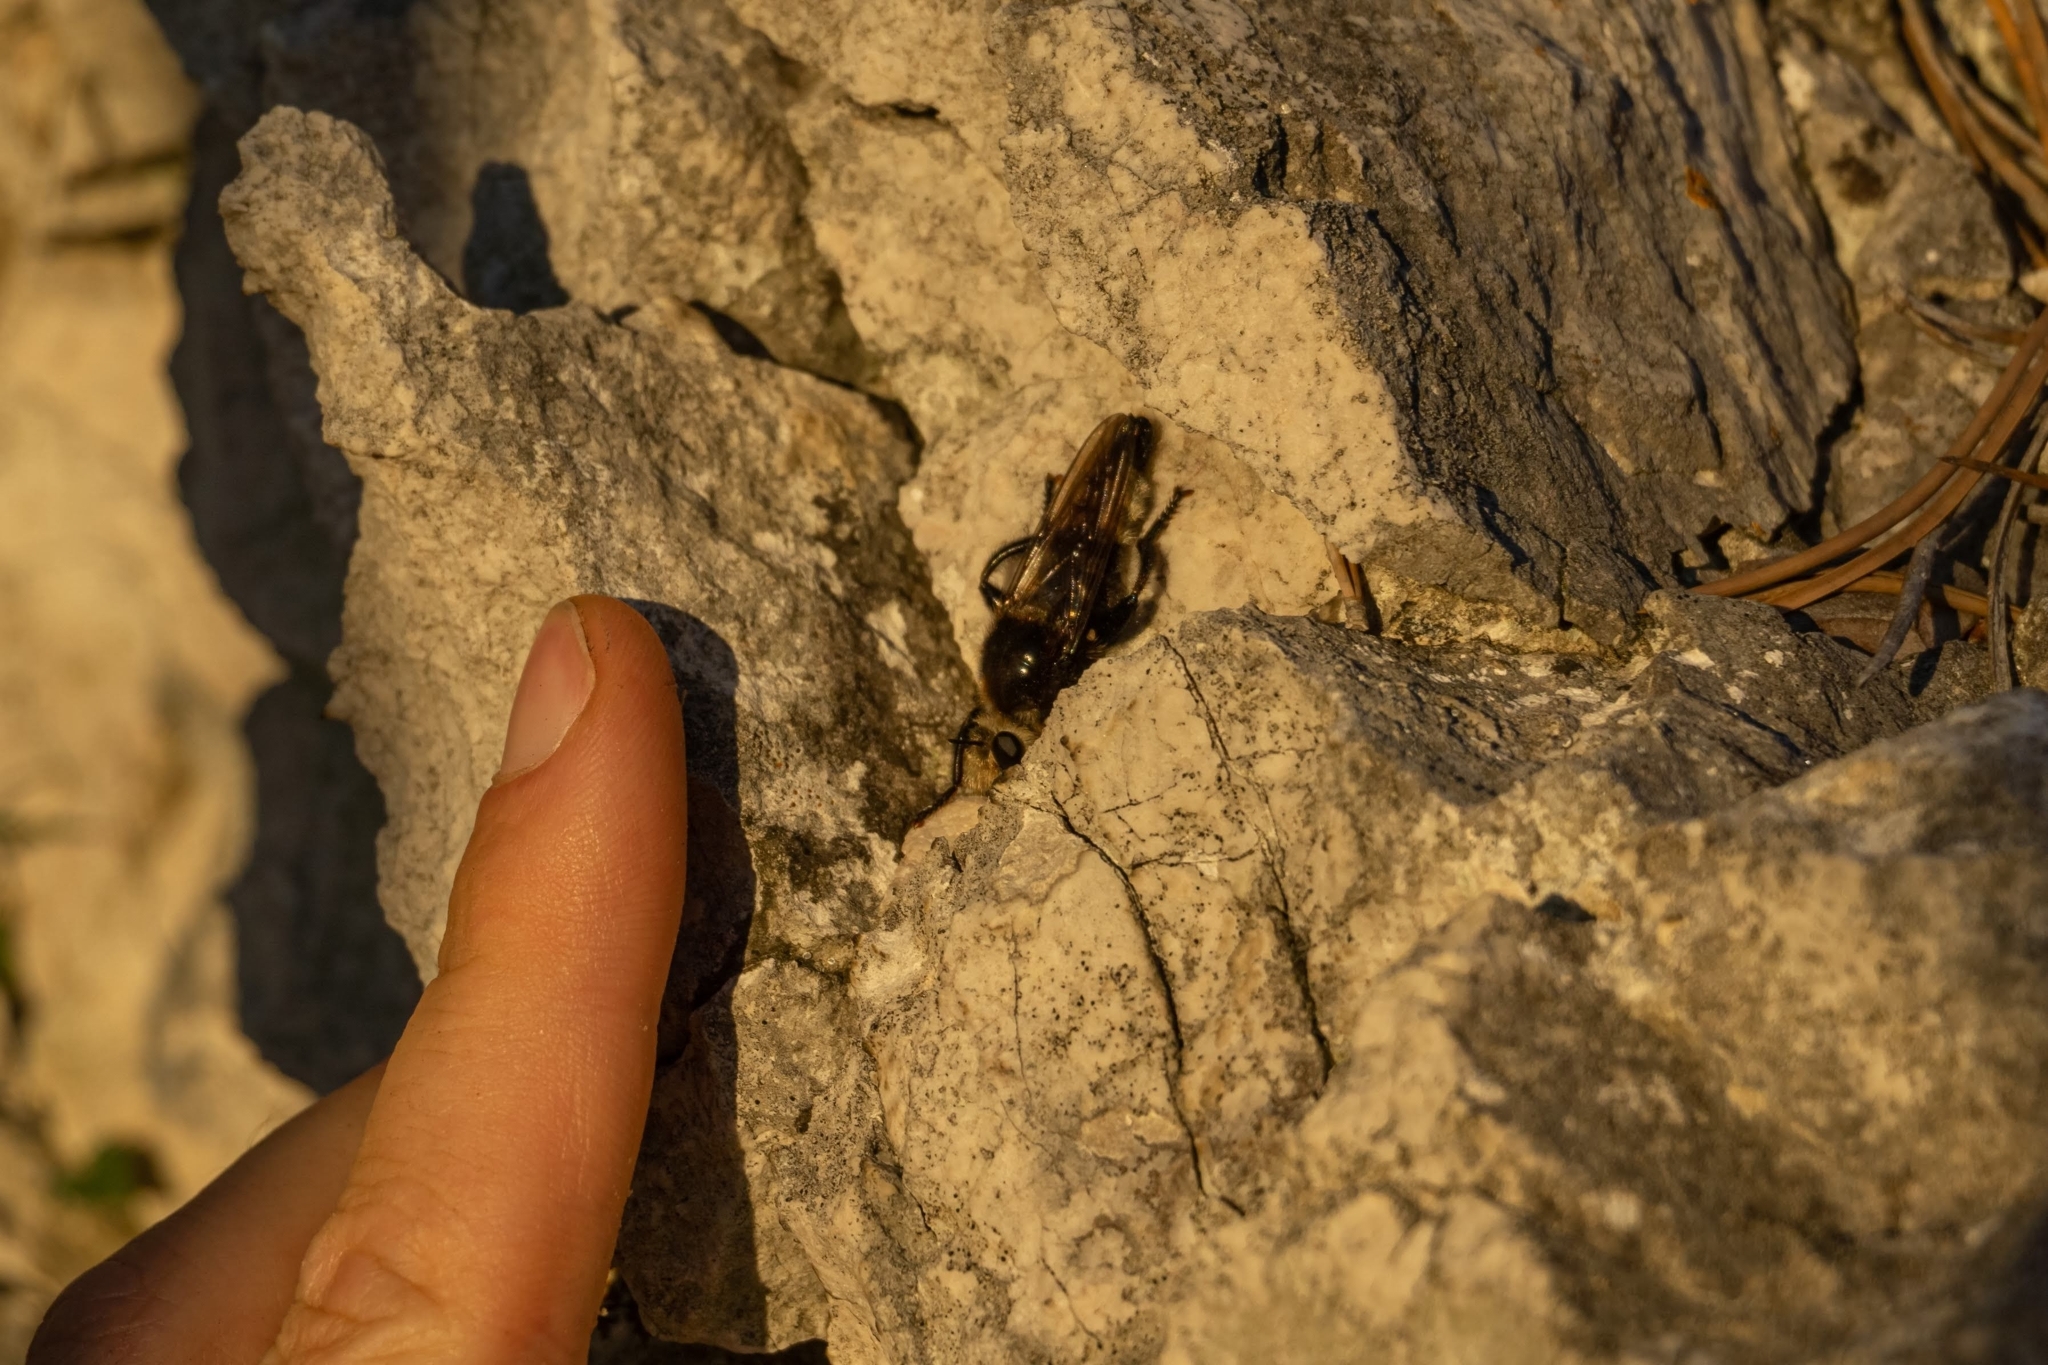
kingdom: Animalia
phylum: Arthropoda
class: Insecta
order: Diptera
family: Asilidae
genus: Laphria
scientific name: Laphria gibbosa
